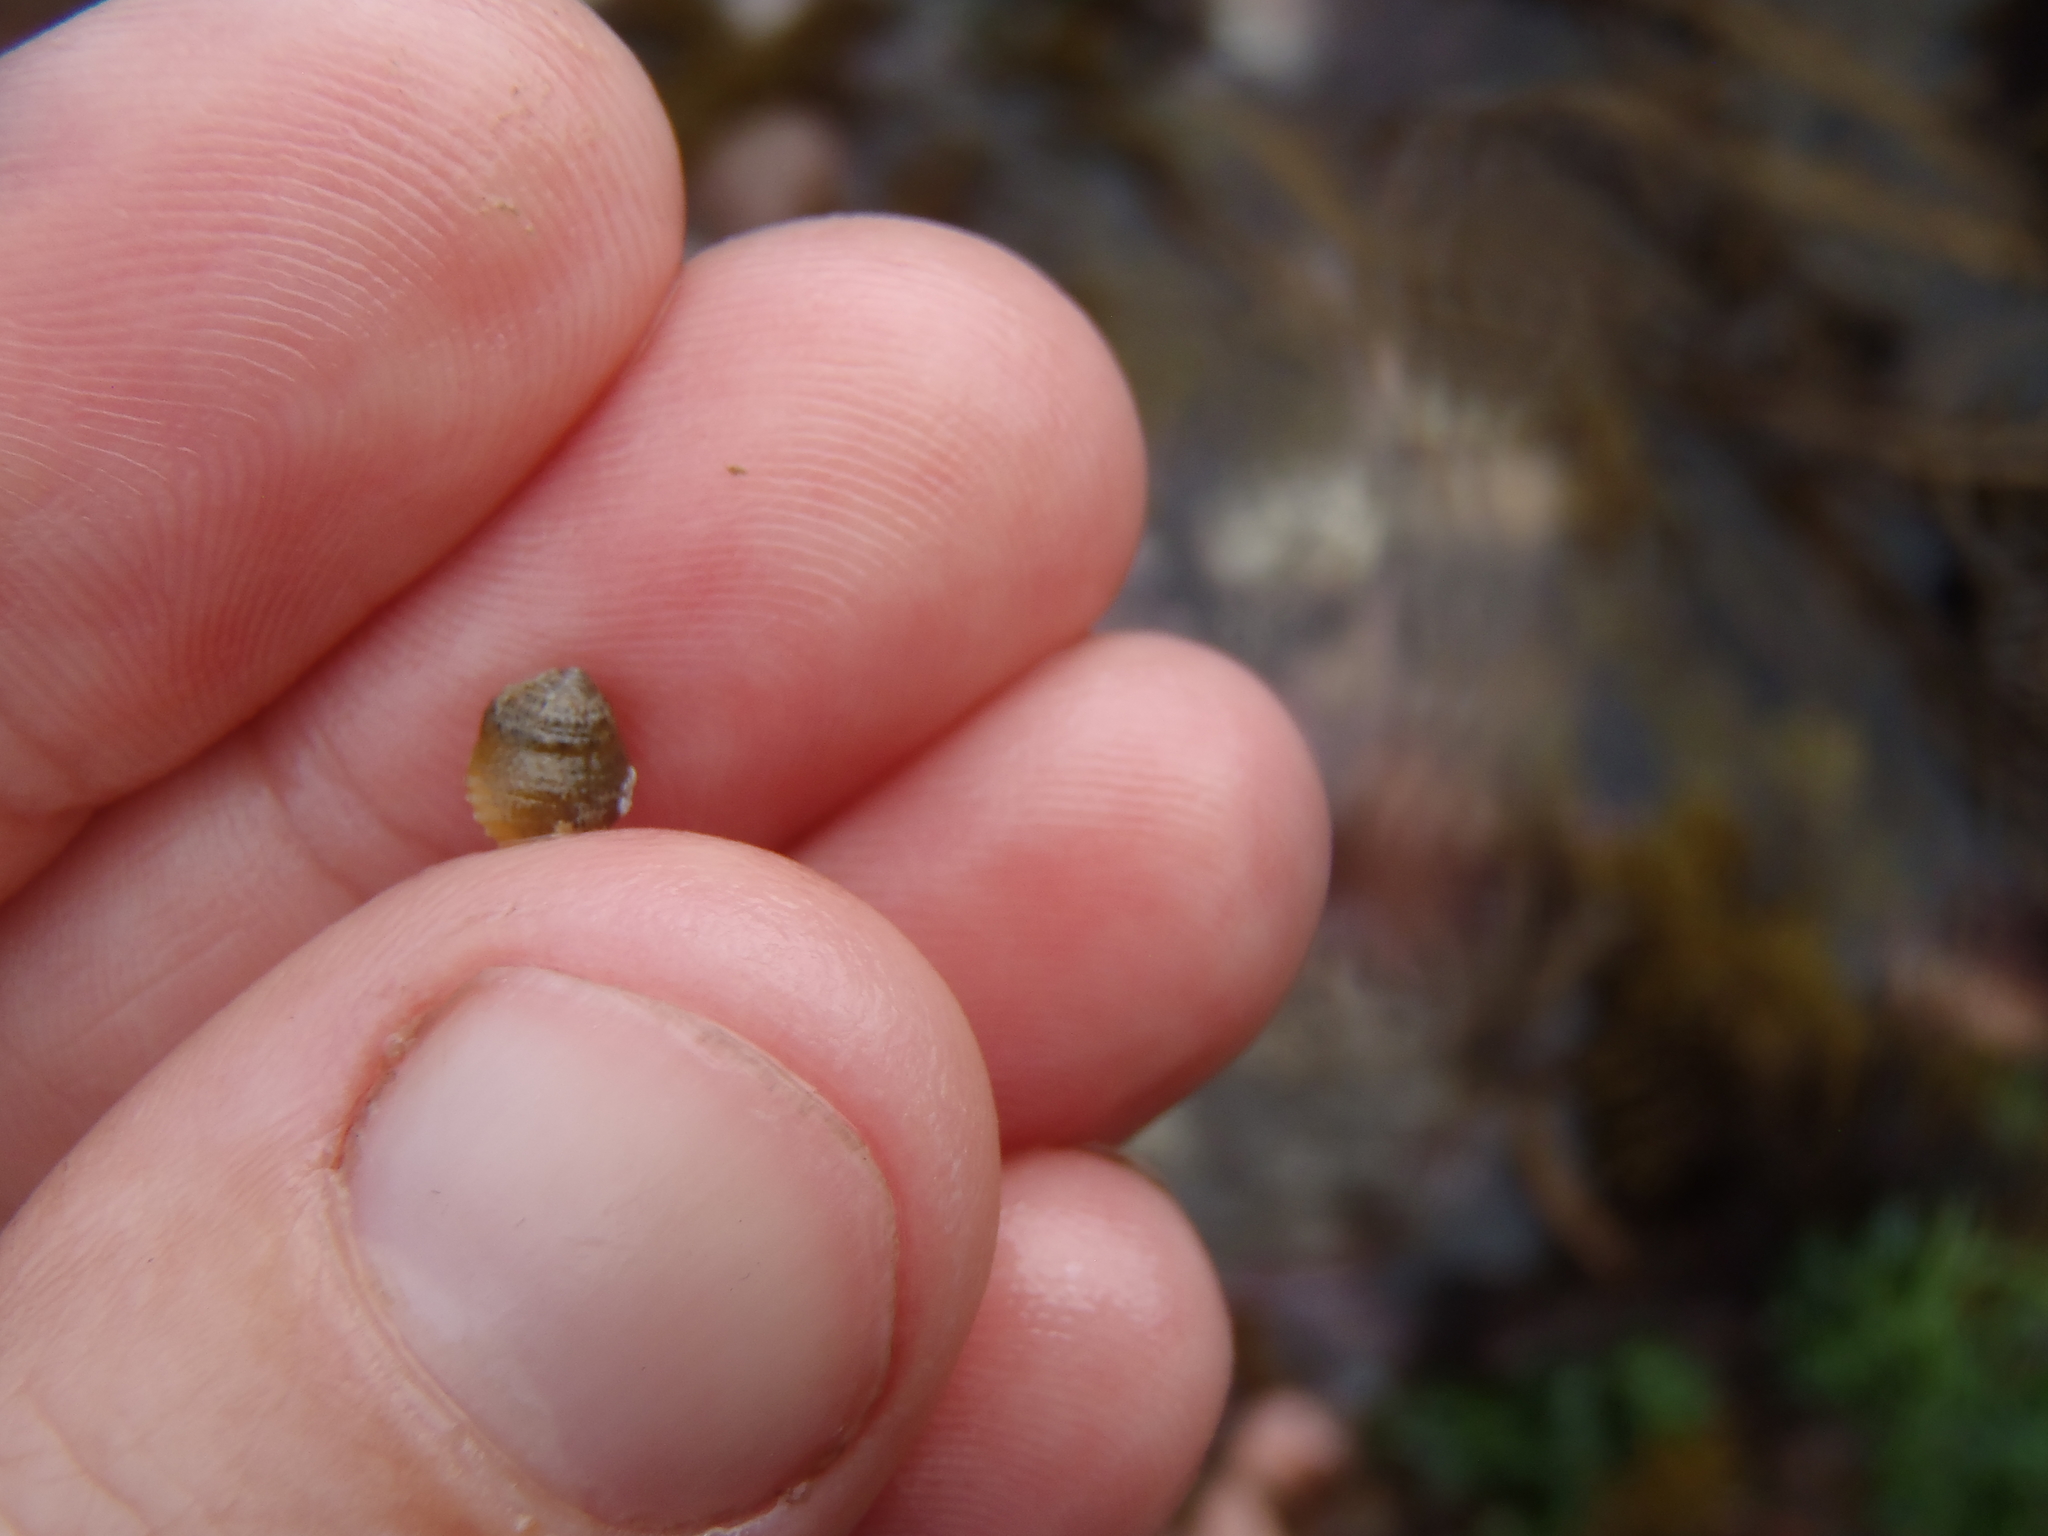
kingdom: Animalia
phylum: Mollusca
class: Gastropoda
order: Seguenziida
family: Chilodontaidae
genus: Herpetopoma
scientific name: Herpetopoma bellum
